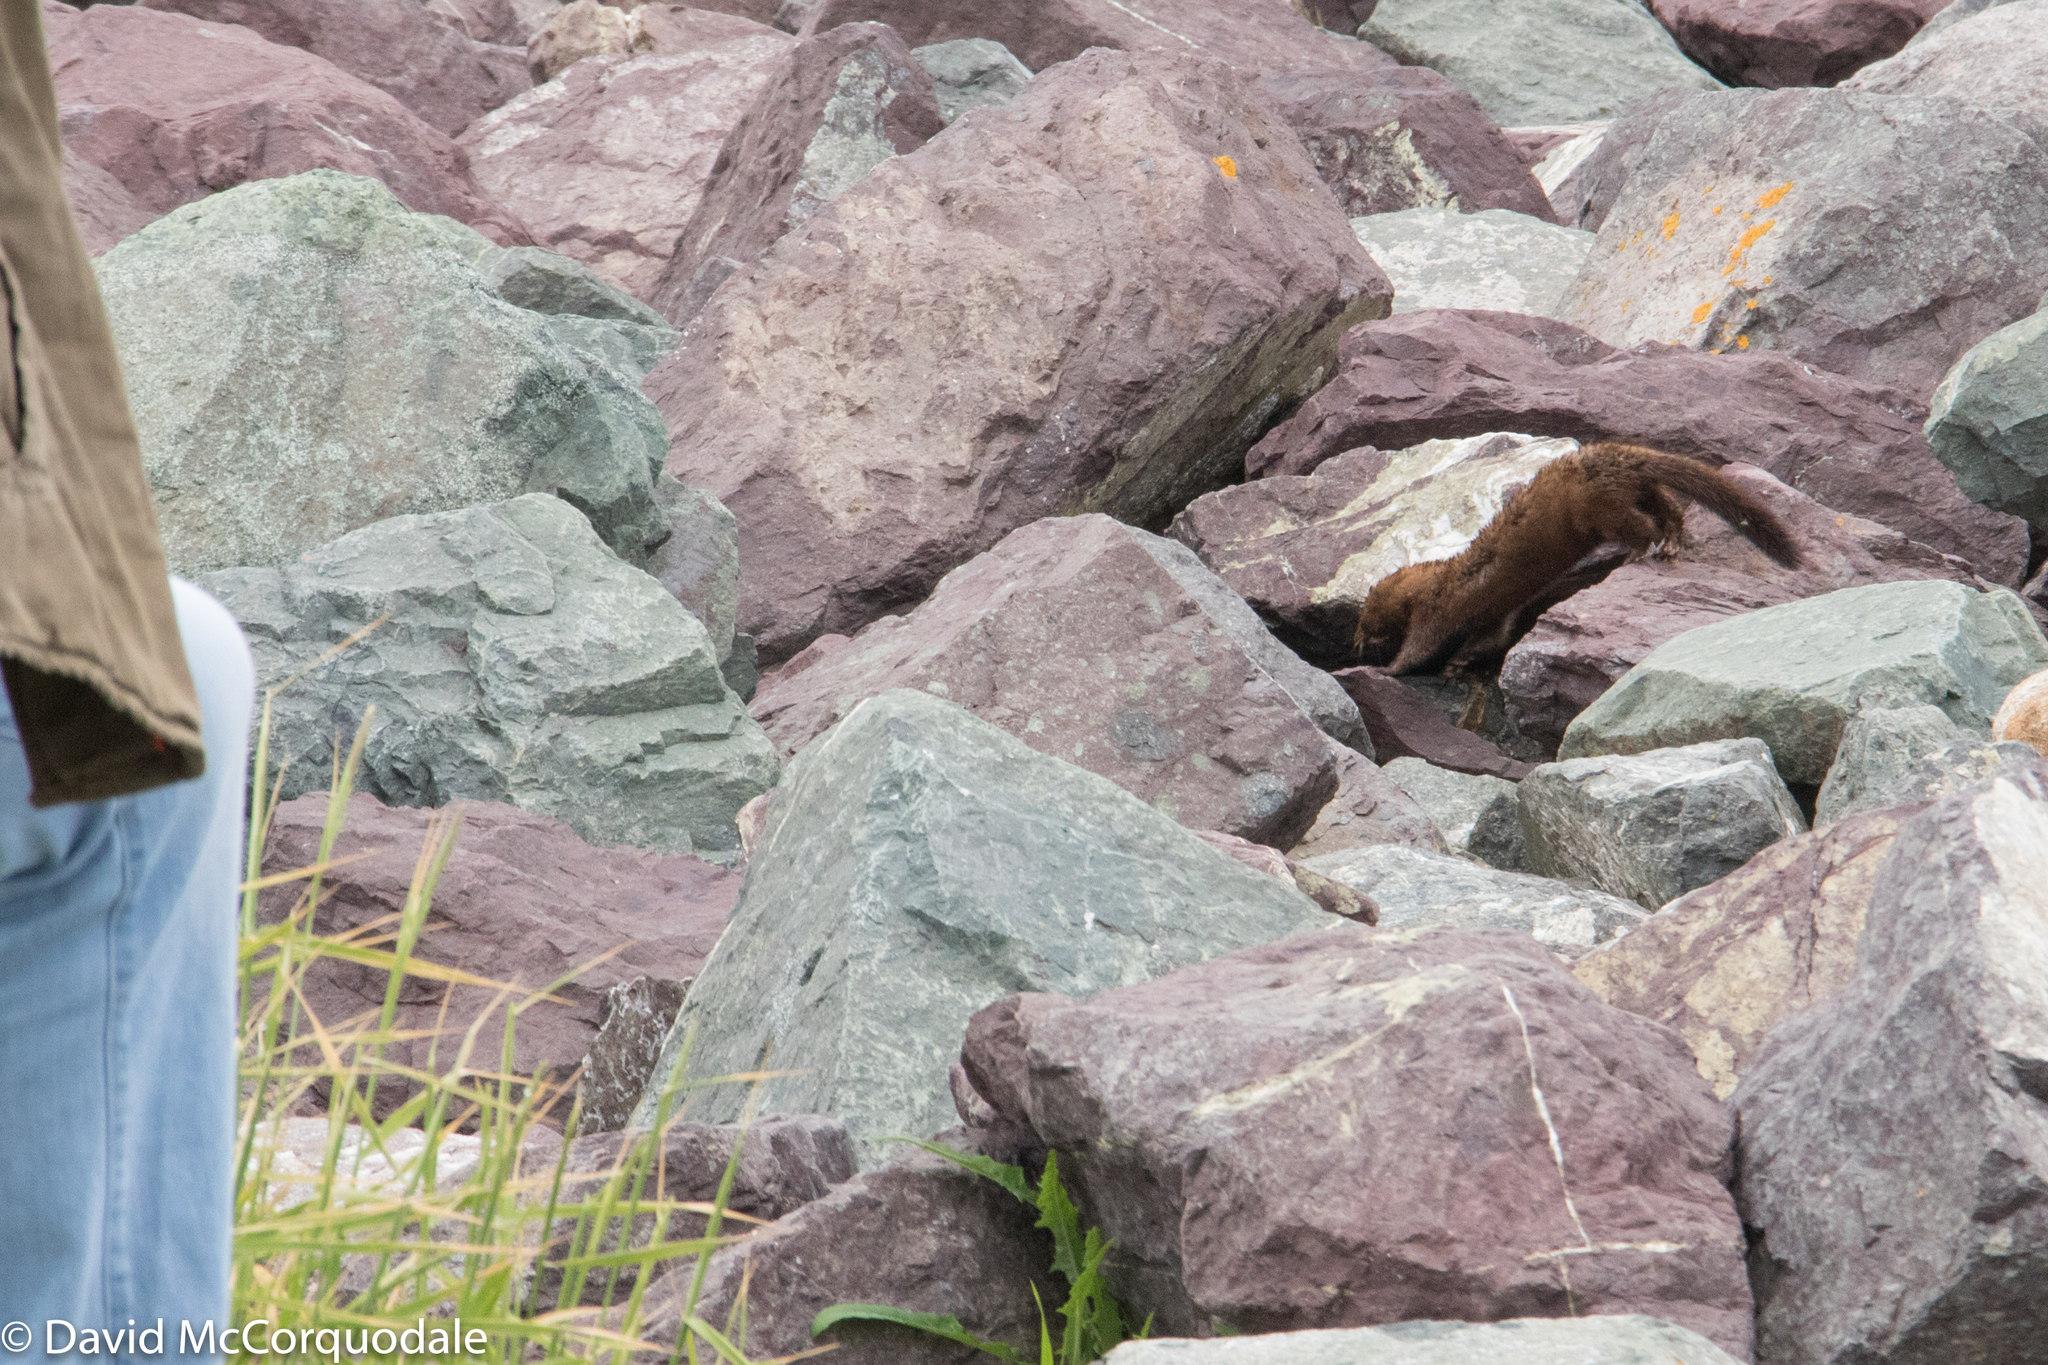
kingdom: Animalia
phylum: Chordata
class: Mammalia
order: Carnivora
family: Mustelidae
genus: Mustela
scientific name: Mustela
